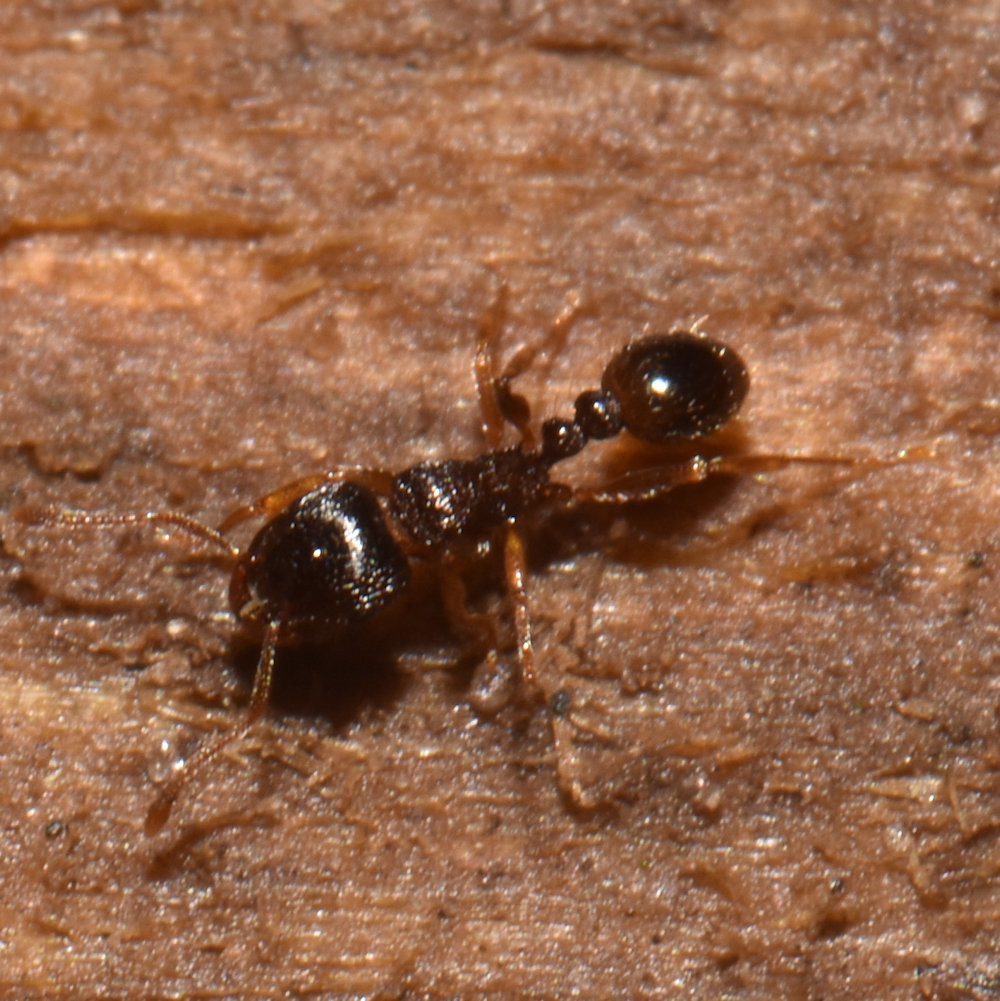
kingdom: Animalia
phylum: Arthropoda
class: Insecta
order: Hymenoptera
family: Formicidae
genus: Tetramorium
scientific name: Tetramorium immigrans
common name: Pavement ant
